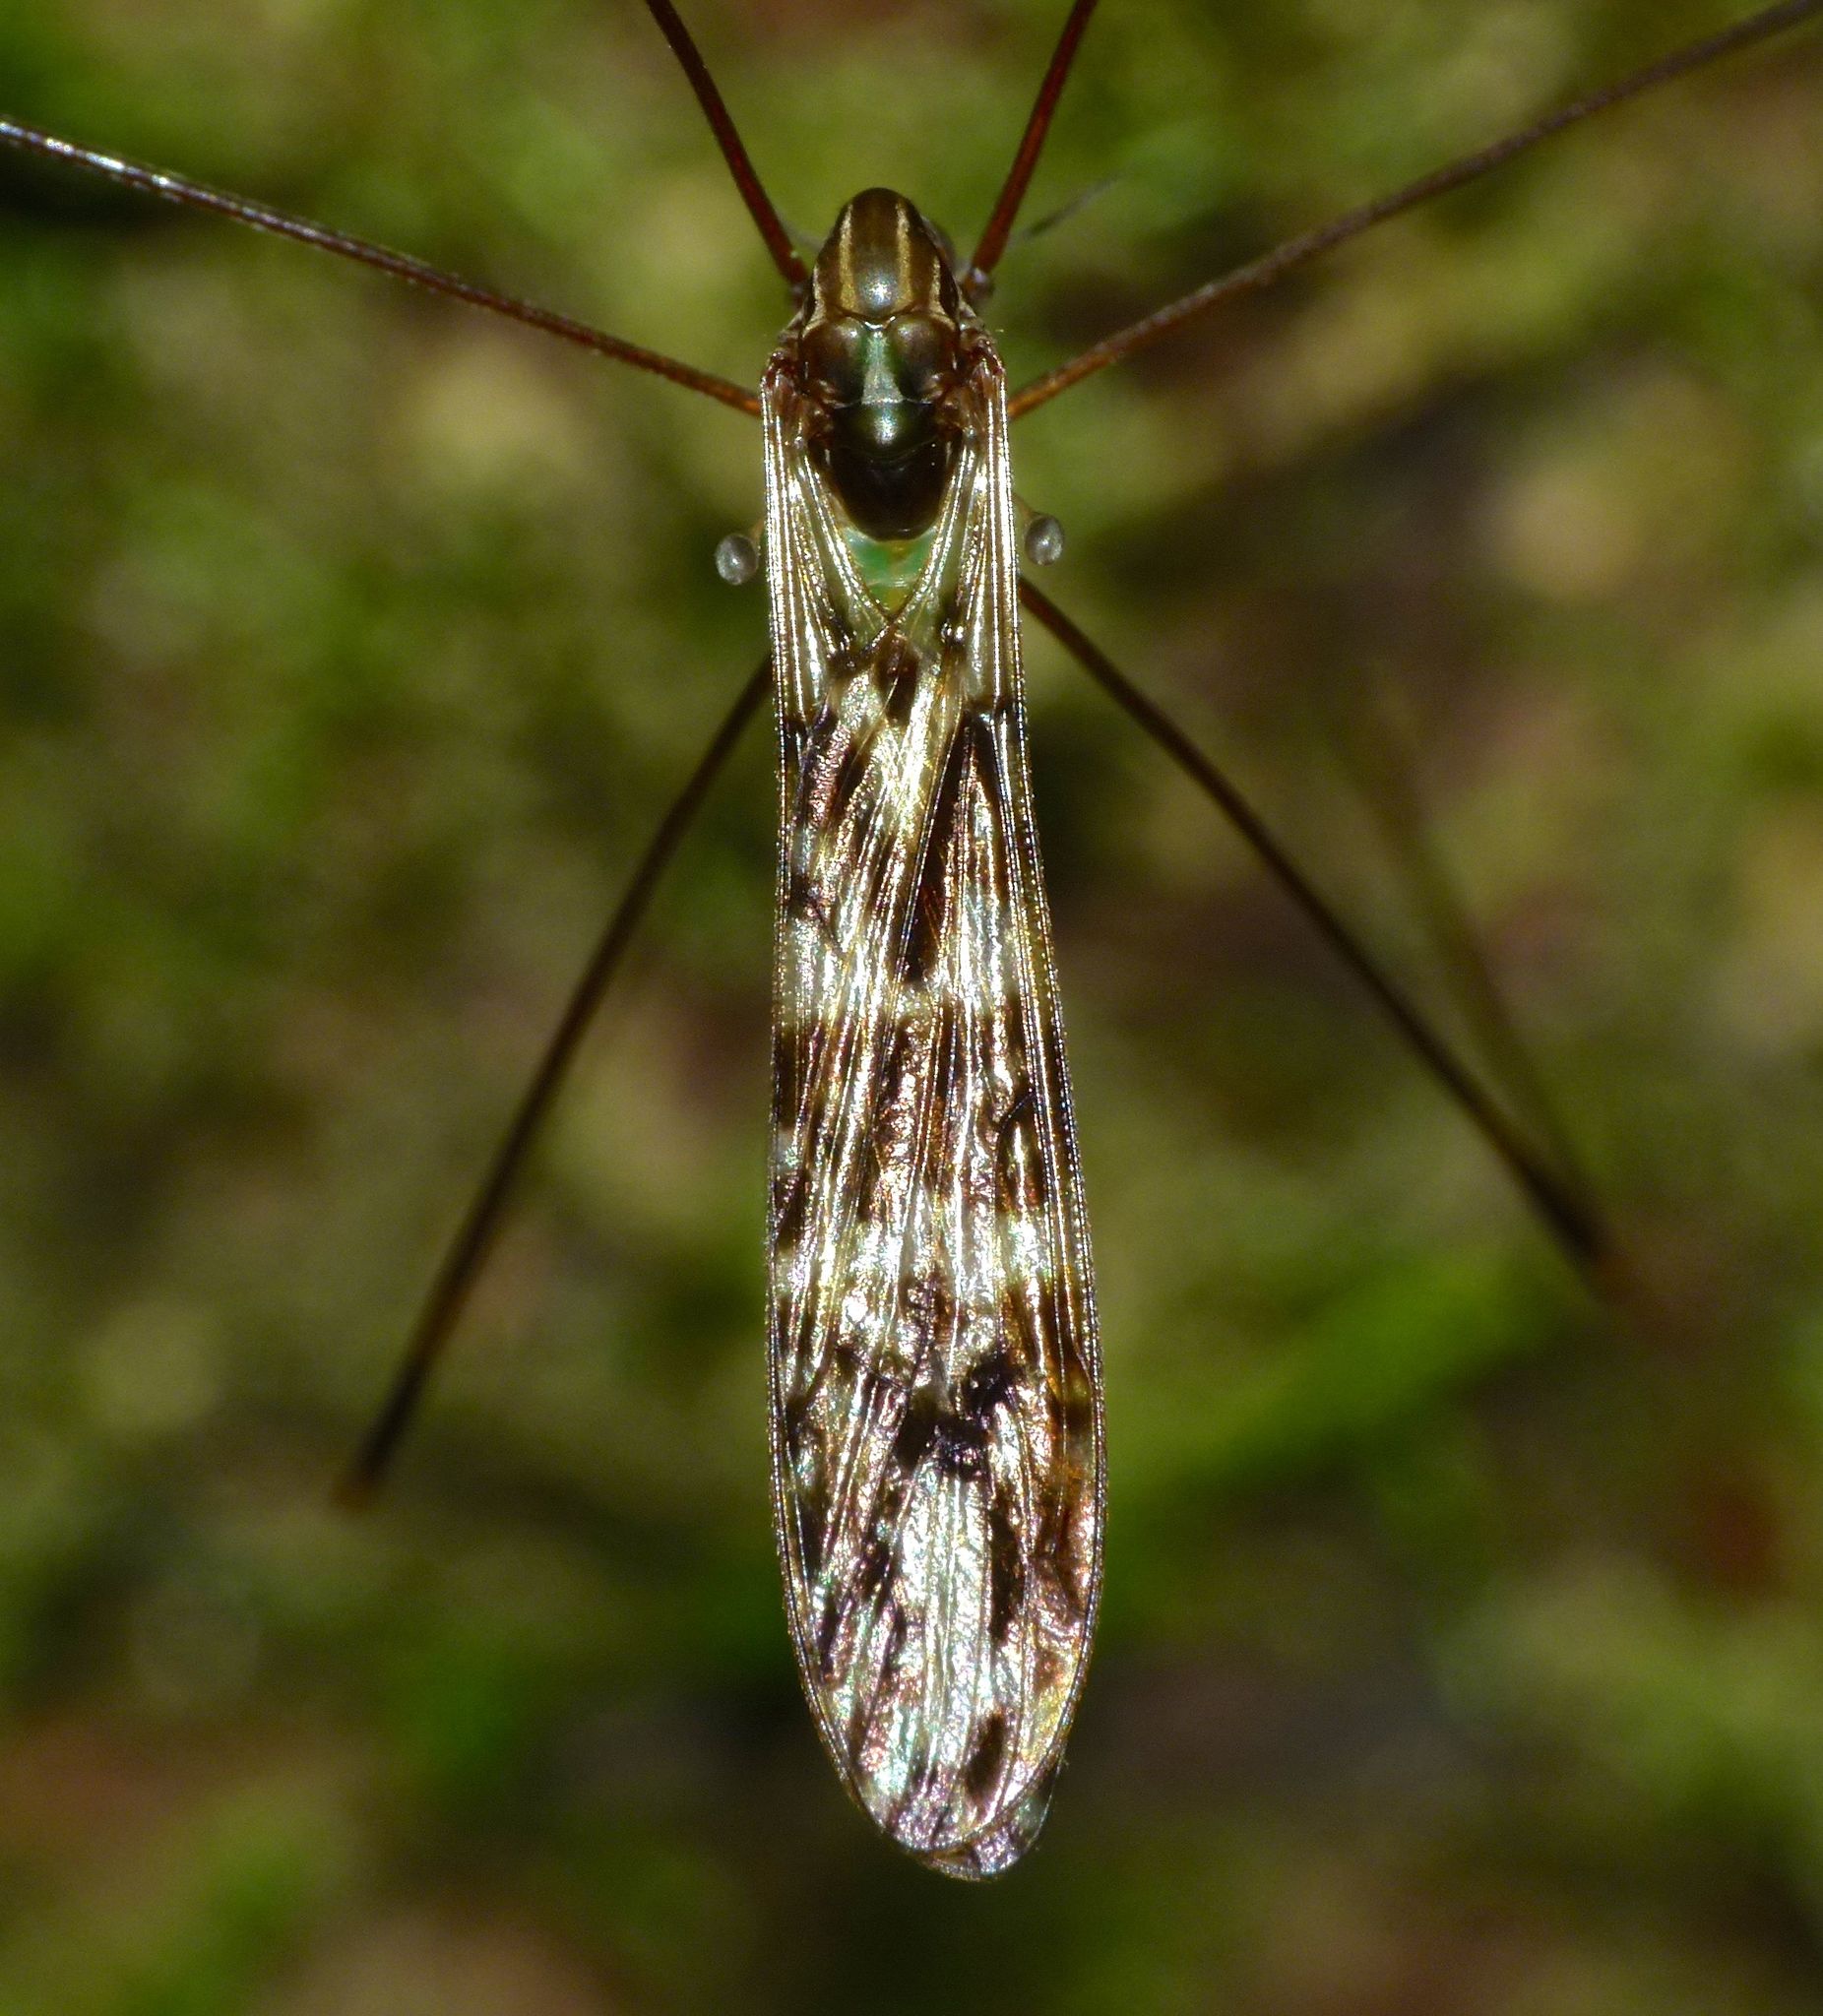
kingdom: Animalia
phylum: Arthropoda
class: Insecta
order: Diptera
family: Limoniidae
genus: Discobola
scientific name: Discobola dohrni
